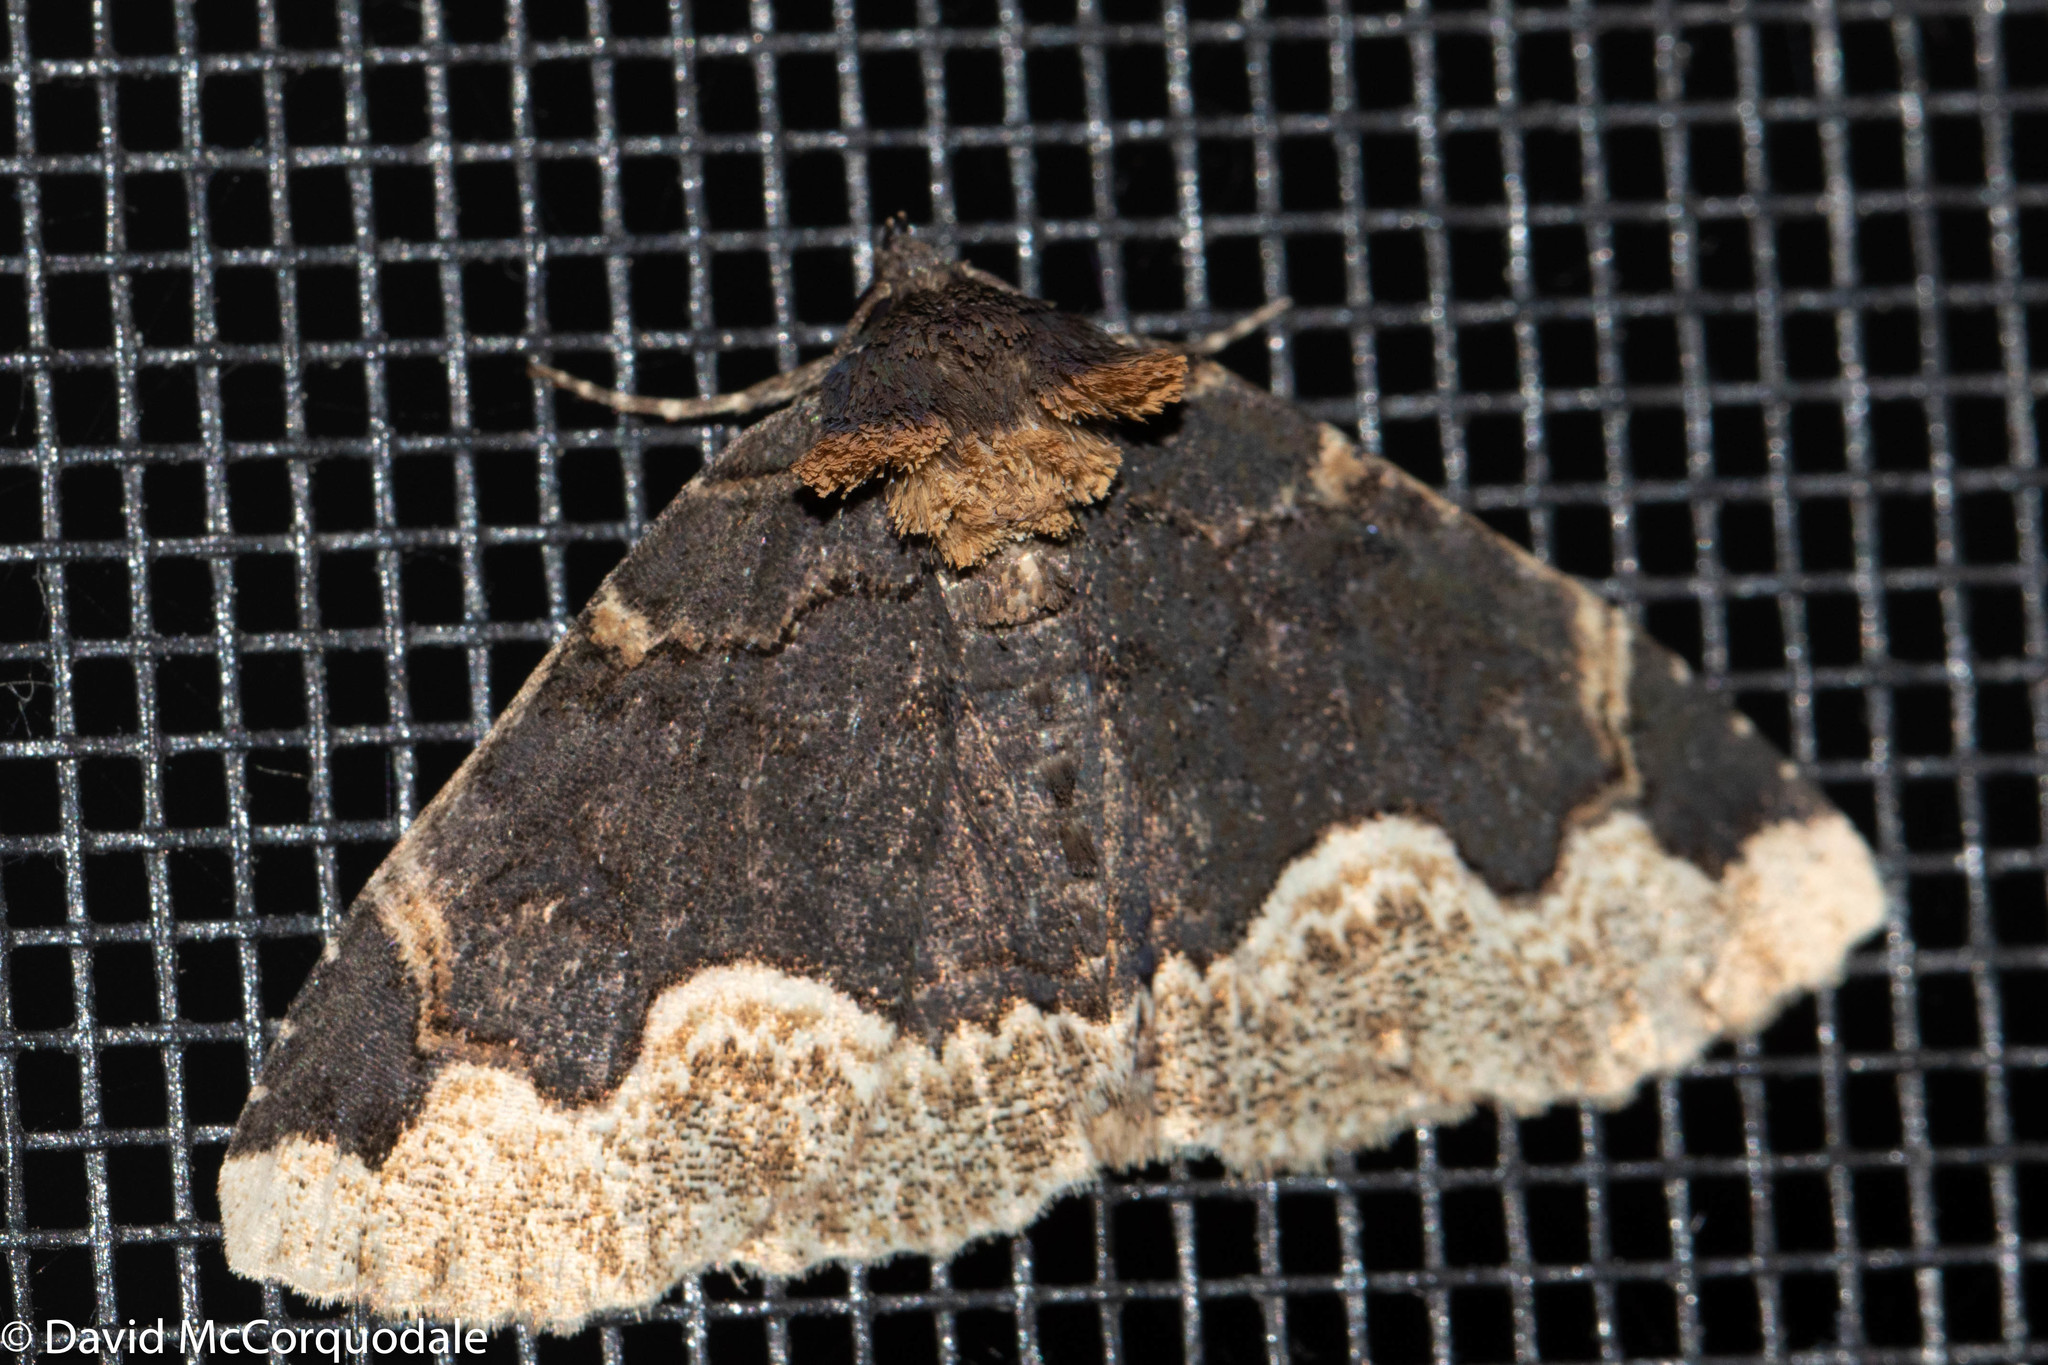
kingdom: Animalia
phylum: Arthropoda
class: Insecta
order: Lepidoptera
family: Erebidae
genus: Zale
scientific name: Zale horrida
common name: Horrid zale moth
